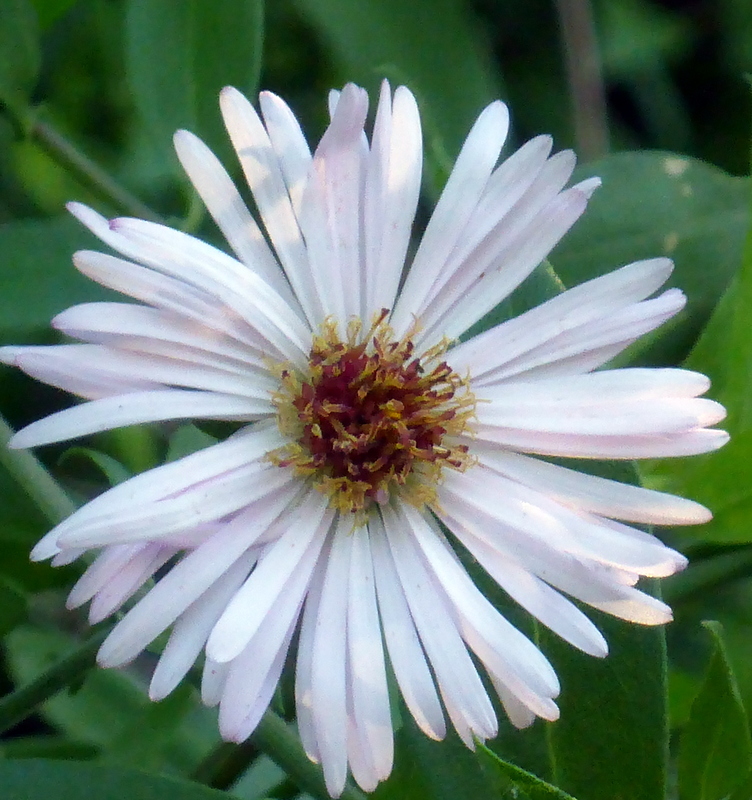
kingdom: Plantae
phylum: Tracheophyta
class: Magnoliopsida
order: Asterales
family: Asteraceae
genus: Ampelaster
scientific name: Ampelaster carolinianus
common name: Climbing aster
